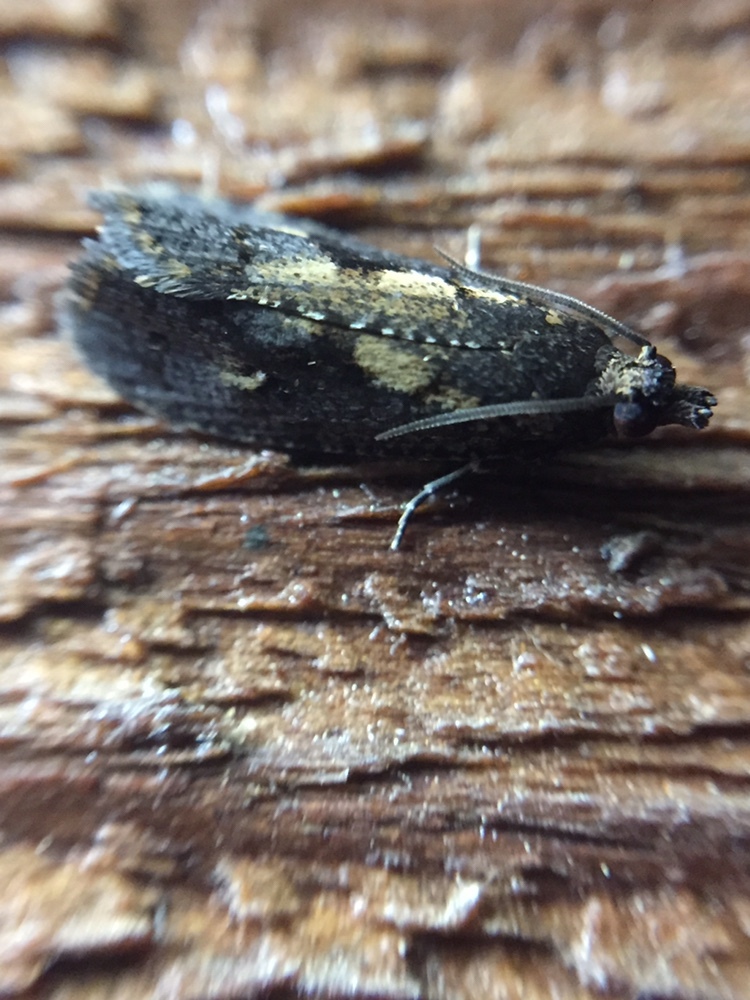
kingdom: Animalia
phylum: Arthropoda
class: Insecta
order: Lepidoptera
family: Tortricidae
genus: Cryptaspasma
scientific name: Cryptaspasma querula
